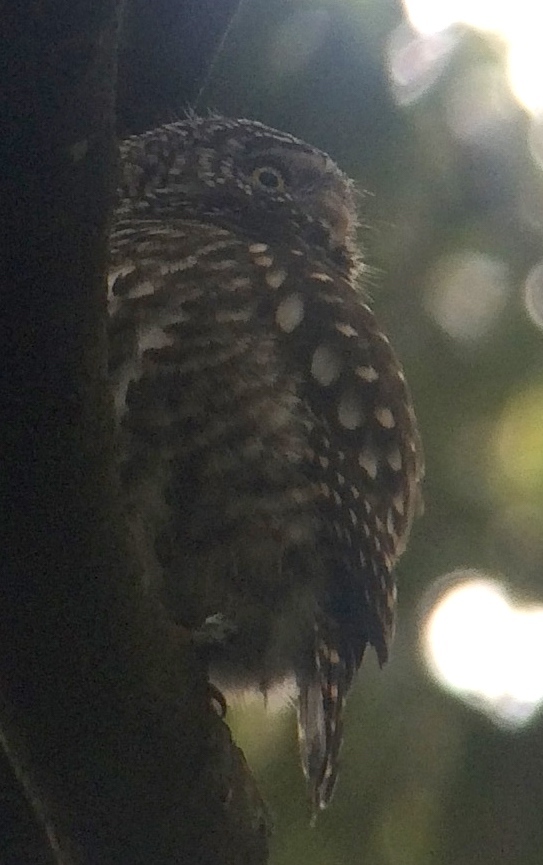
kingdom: Animalia
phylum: Chordata
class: Aves
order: Strigiformes
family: Strigidae
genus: Glaucidium
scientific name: Glaucidium brodiei
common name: Collared owlet
